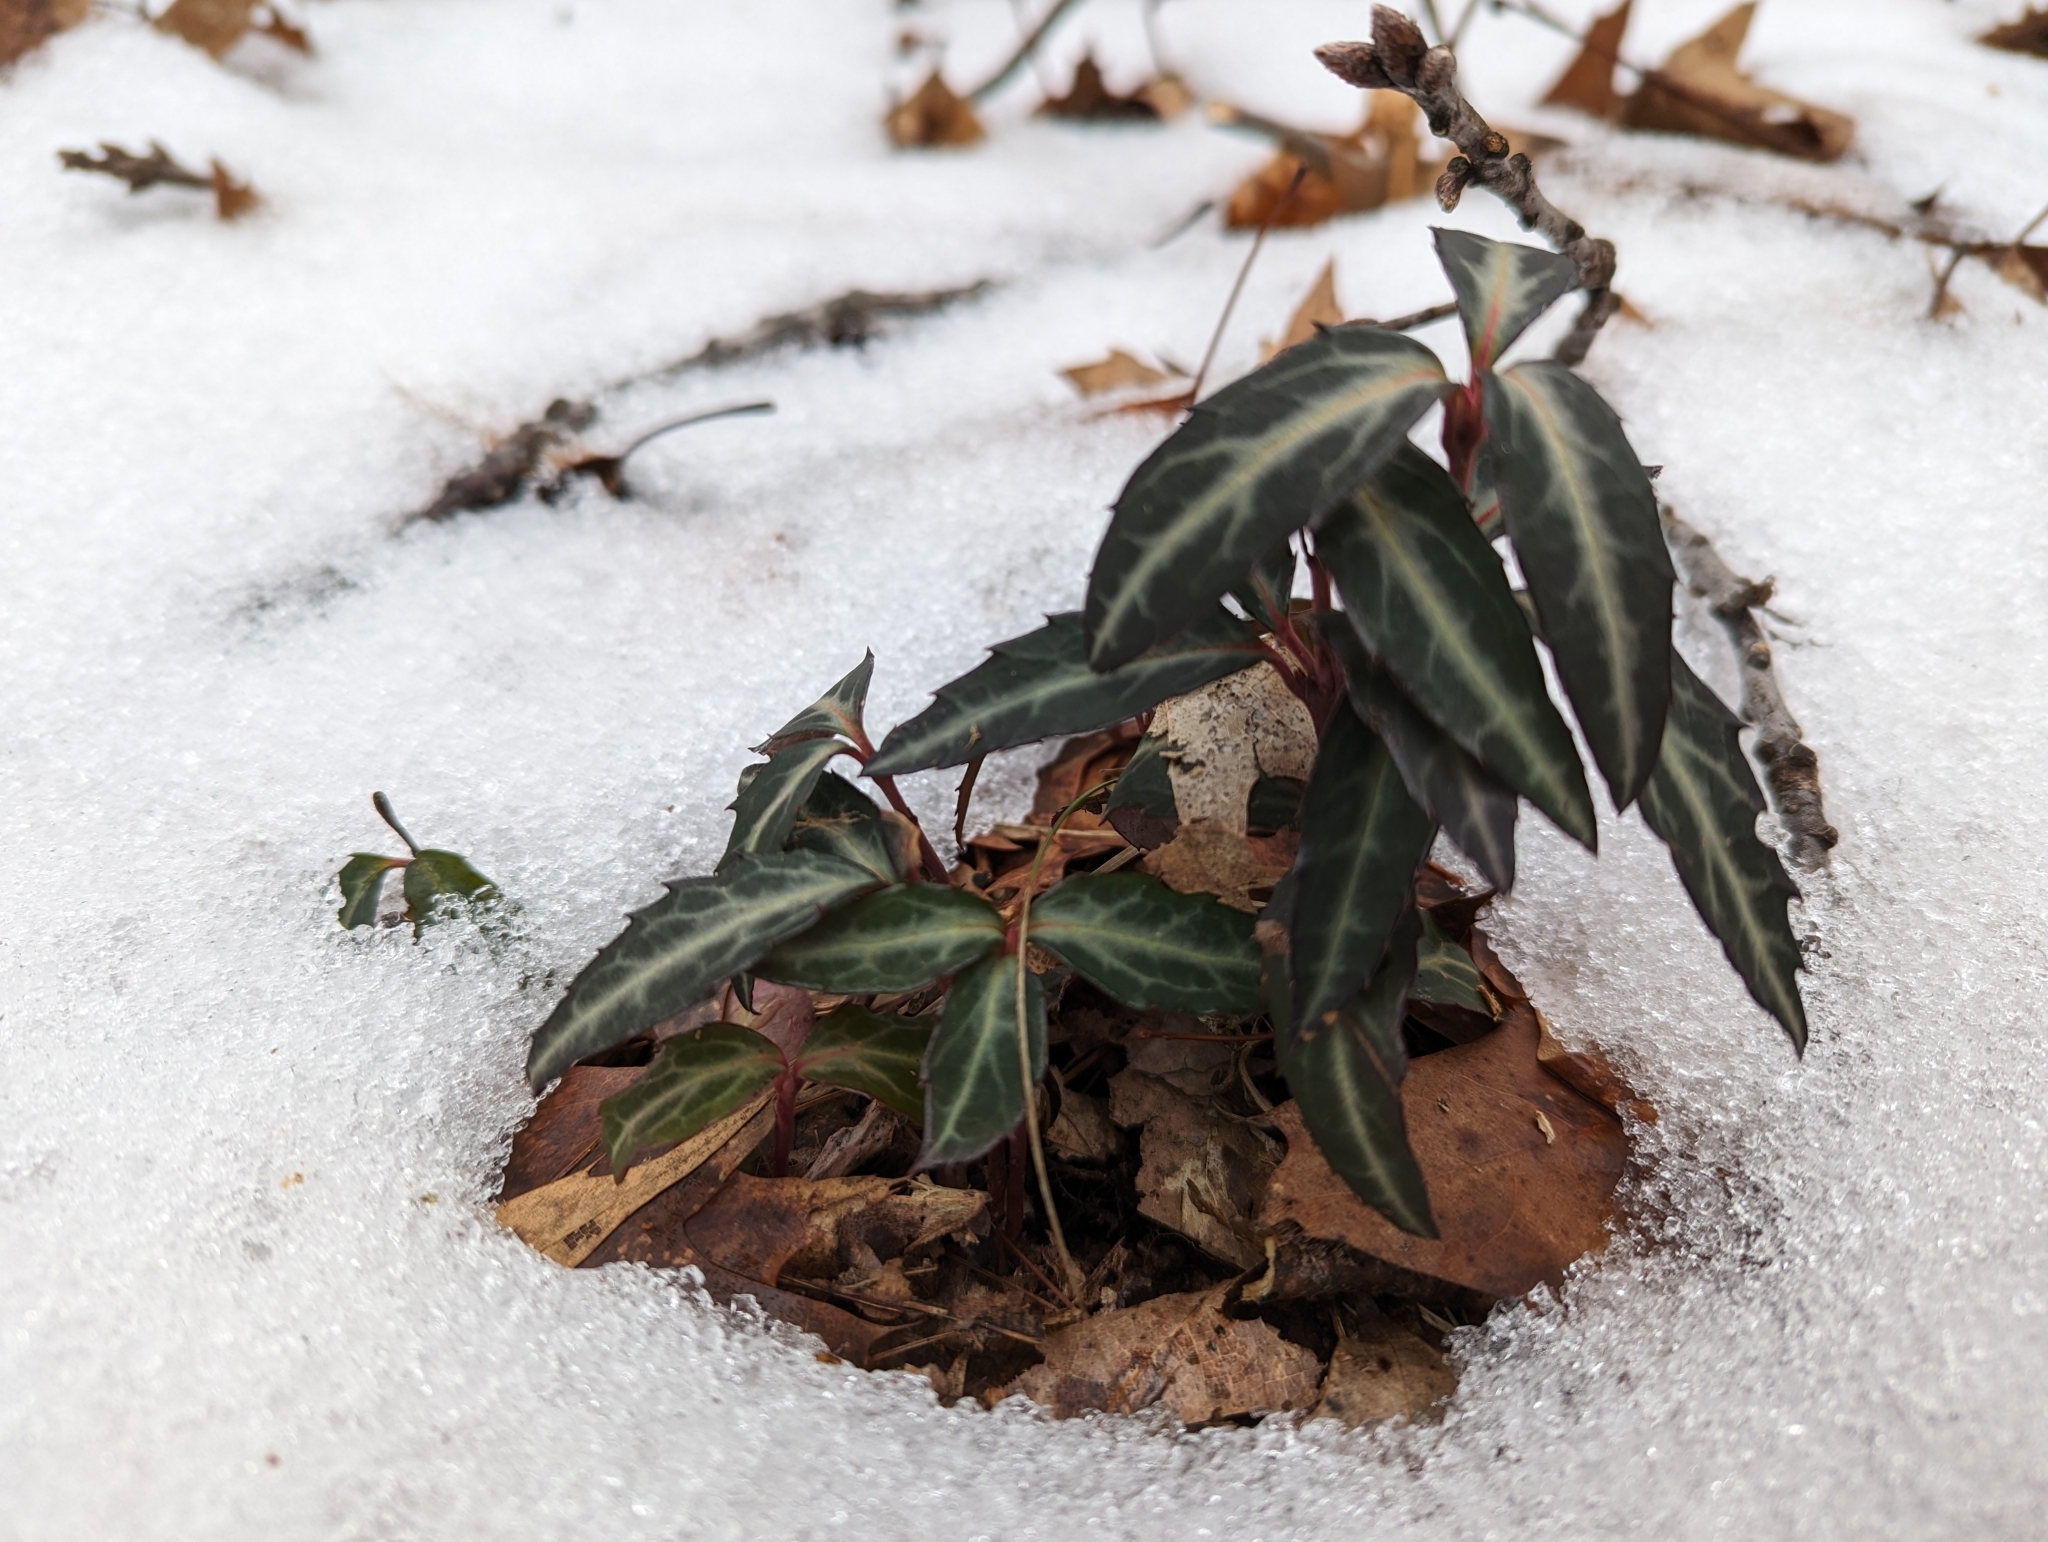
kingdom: Plantae
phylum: Tracheophyta
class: Magnoliopsida
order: Ericales
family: Ericaceae
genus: Chimaphila
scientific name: Chimaphila maculata
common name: Spotted pipsissewa
